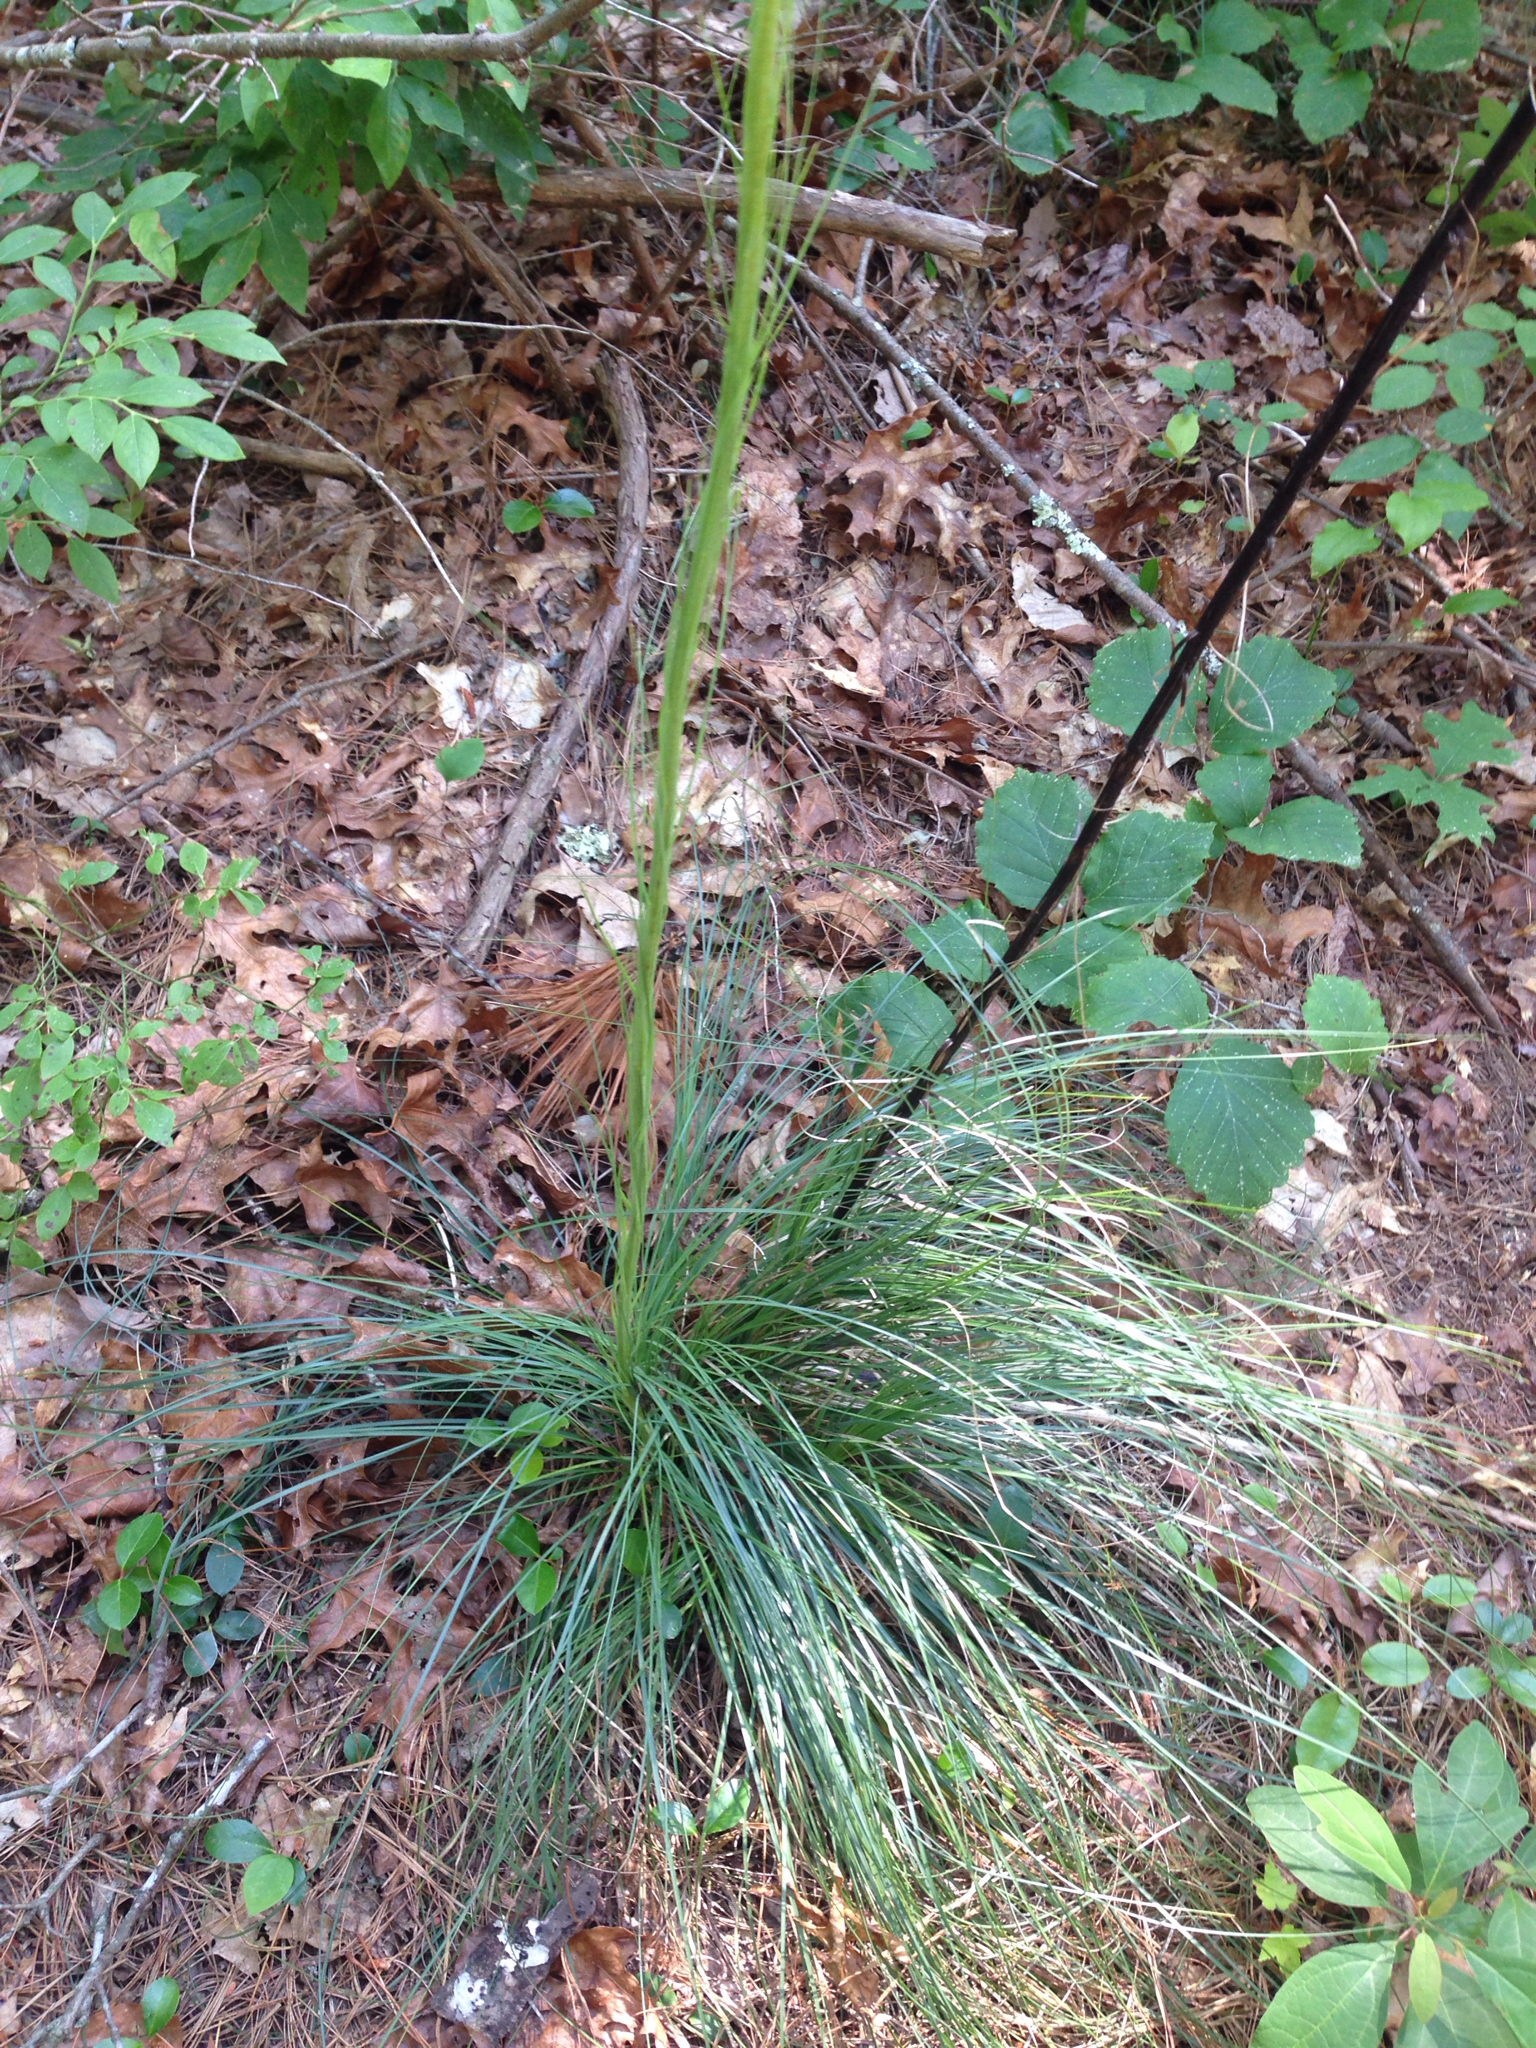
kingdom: Plantae
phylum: Tracheophyta
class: Liliopsida
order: Liliales
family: Melanthiaceae
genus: Xerophyllum
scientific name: Xerophyllum asphodeloides
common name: Mountain-asphodel
